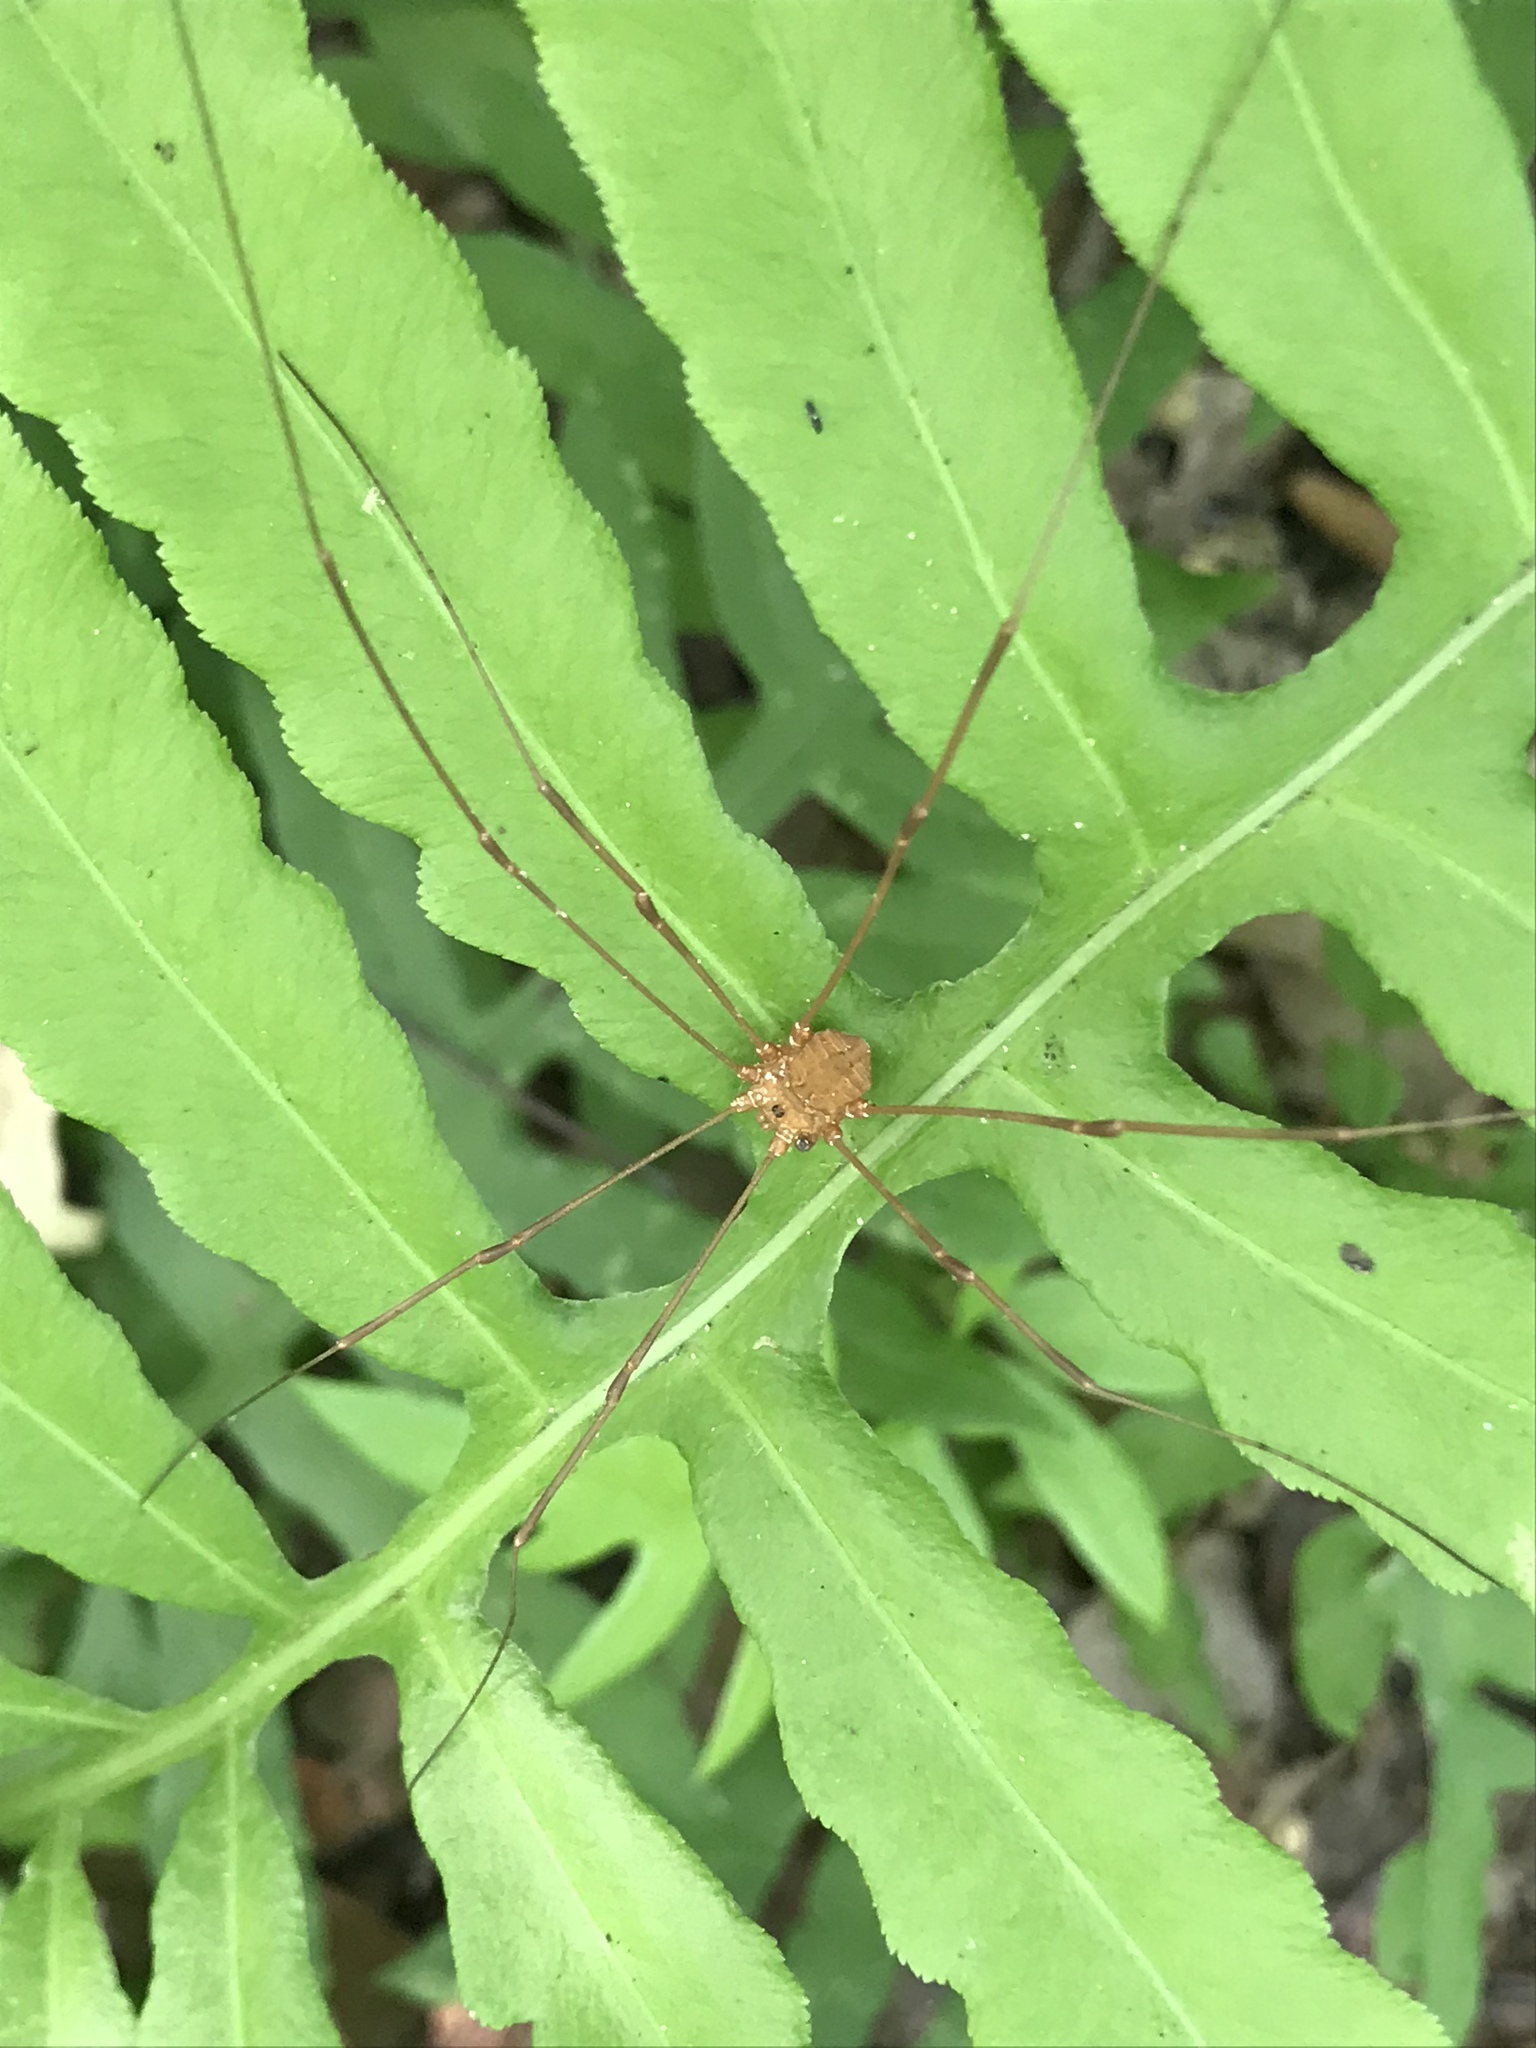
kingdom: Animalia
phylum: Arthropoda
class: Arachnida
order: Opiliones
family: Sclerosomatidae
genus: Leiobunum
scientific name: Leiobunum flavum
